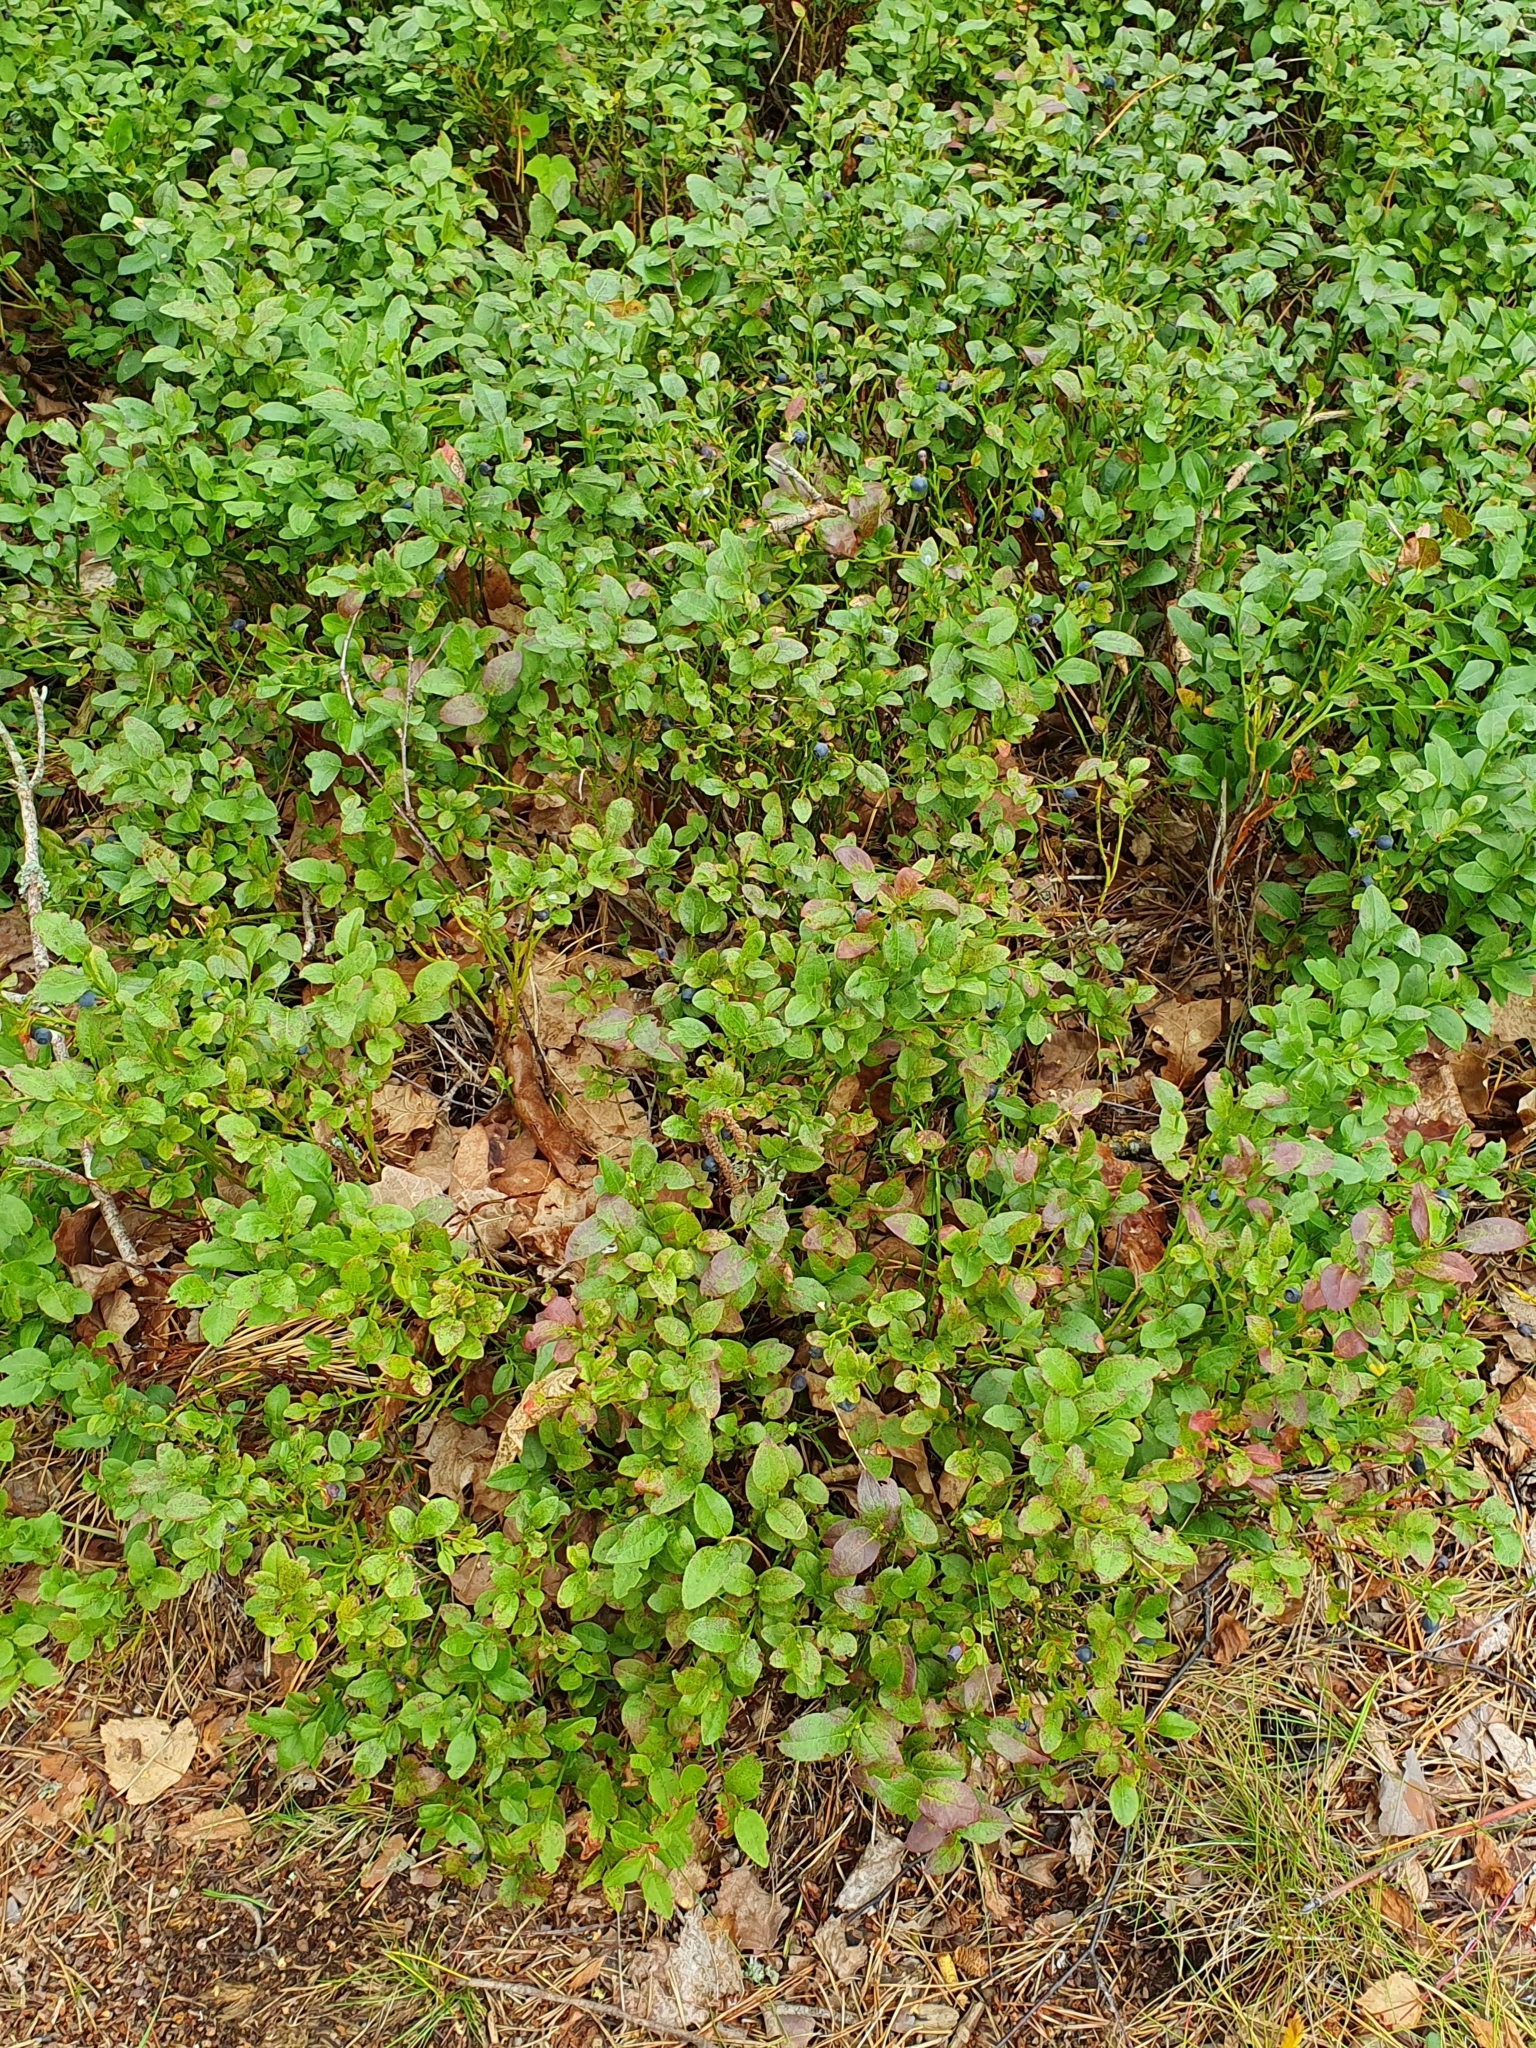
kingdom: Plantae
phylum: Tracheophyta
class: Magnoliopsida
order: Ericales
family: Ericaceae
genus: Vaccinium
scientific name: Vaccinium myrtillus
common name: Bilberry
